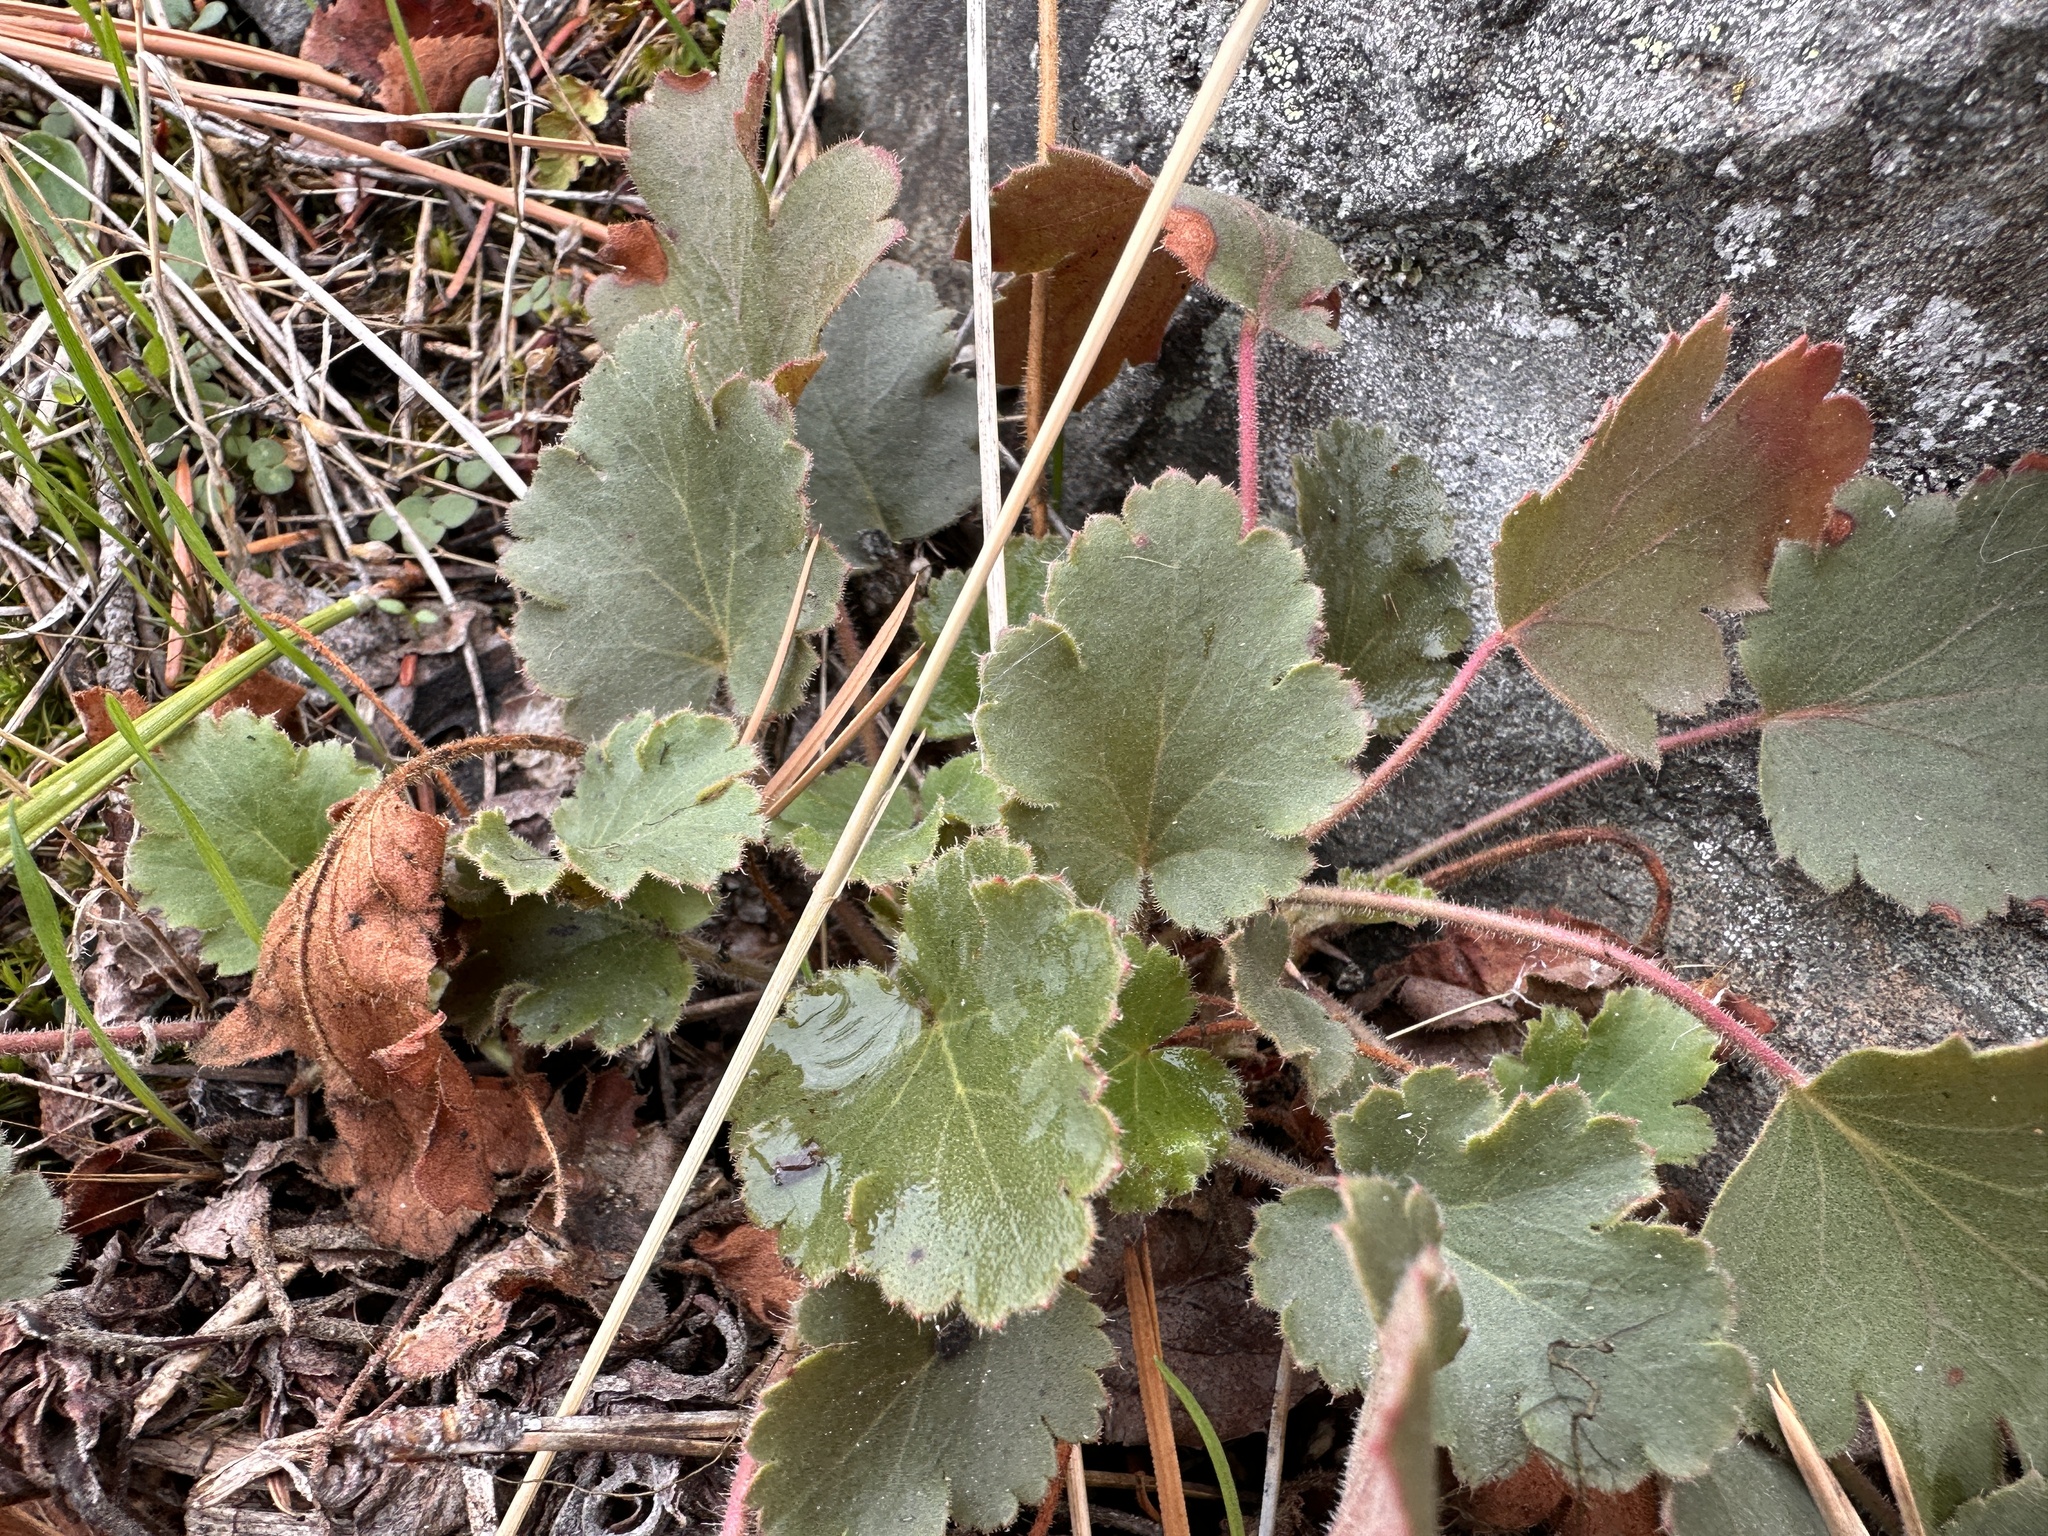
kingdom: Plantae
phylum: Tracheophyta
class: Magnoliopsida
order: Saxifragales
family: Saxifragaceae
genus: Heuchera
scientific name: Heuchera cylindrica
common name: Mat alumroot
